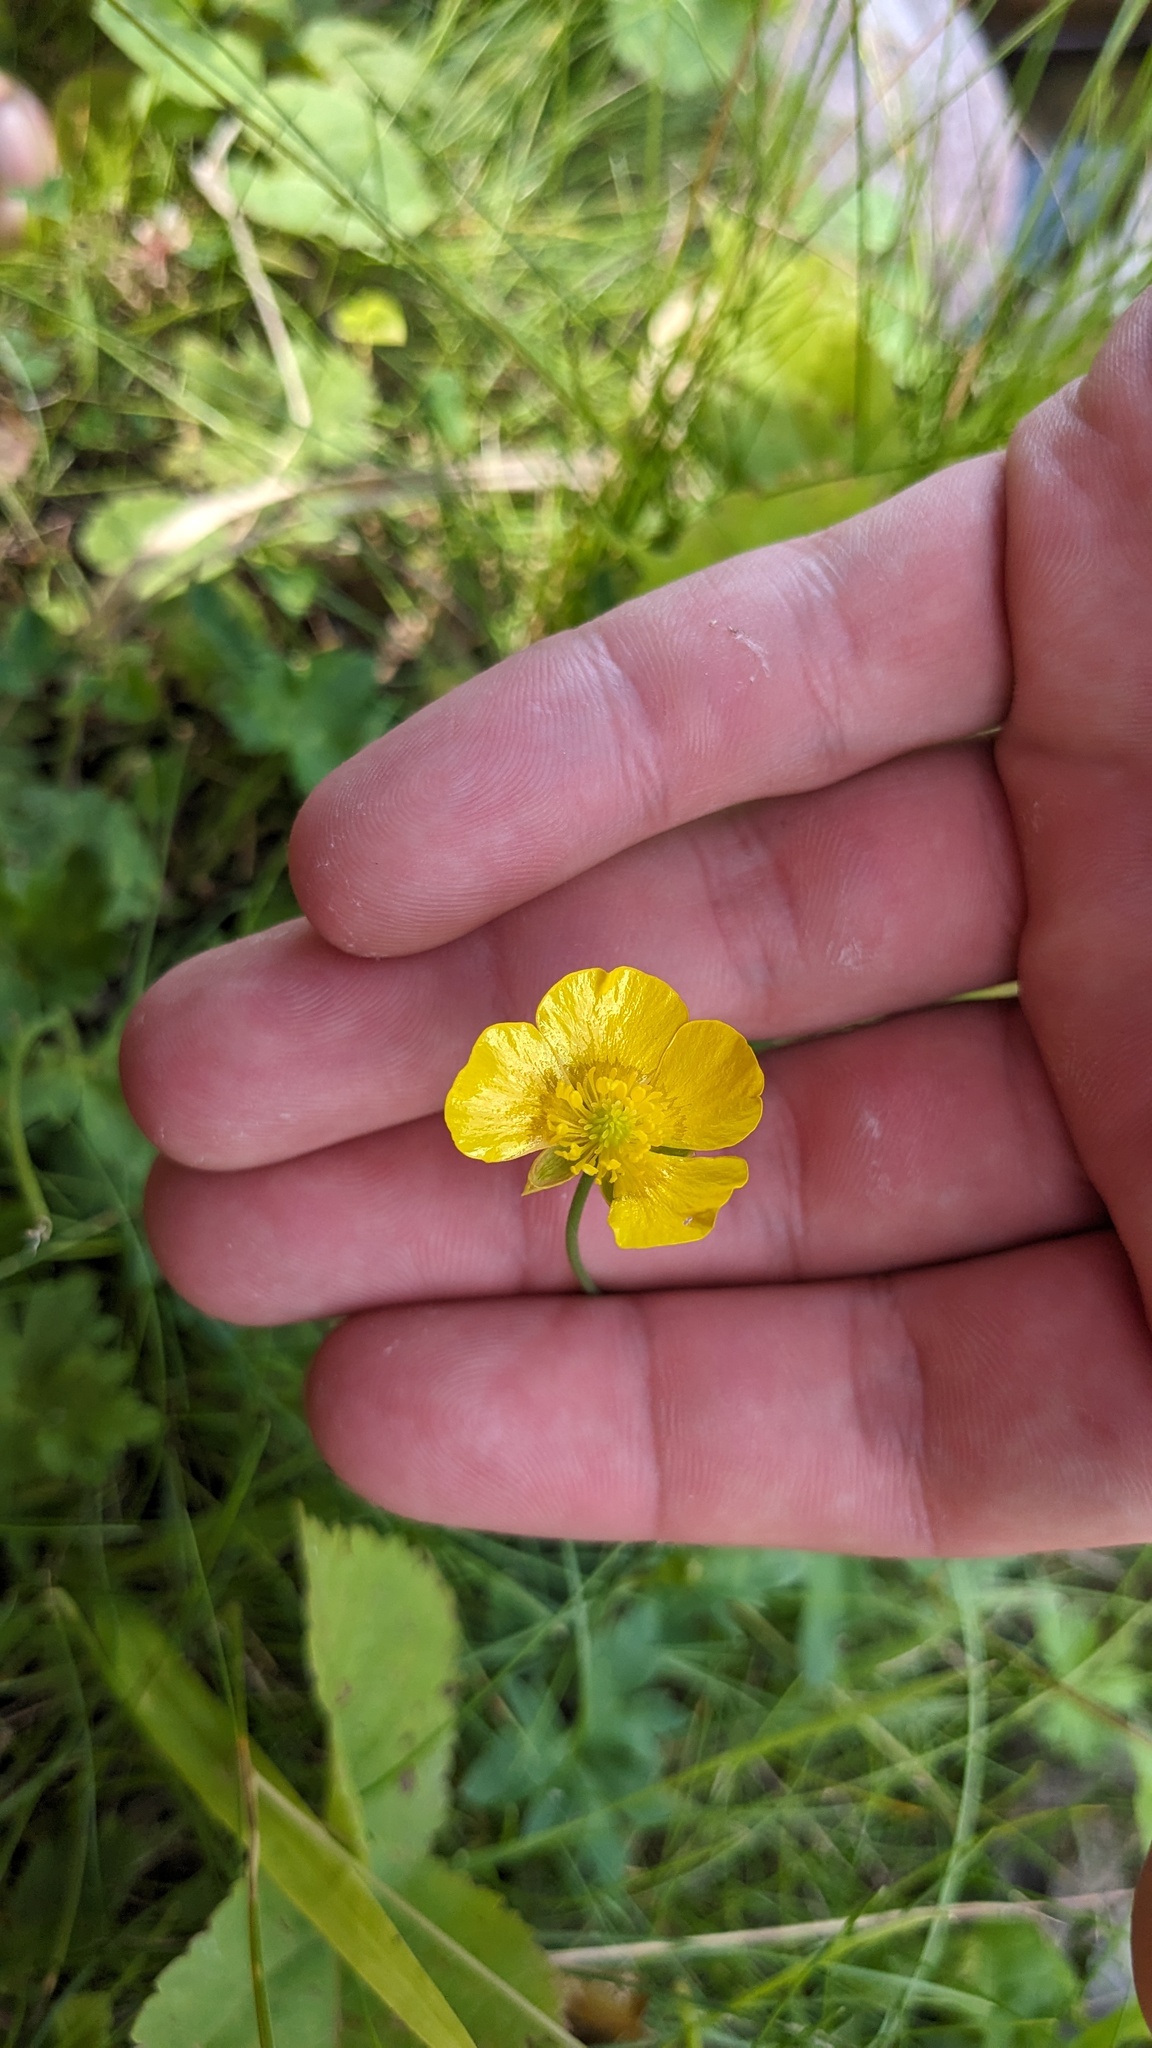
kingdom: Plantae
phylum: Tracheophyta
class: Magnoliopsida
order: Ranunculales
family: Ranunculaceae
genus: Ranunculus
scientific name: Ranunculus acris
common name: Meadow buttercup
